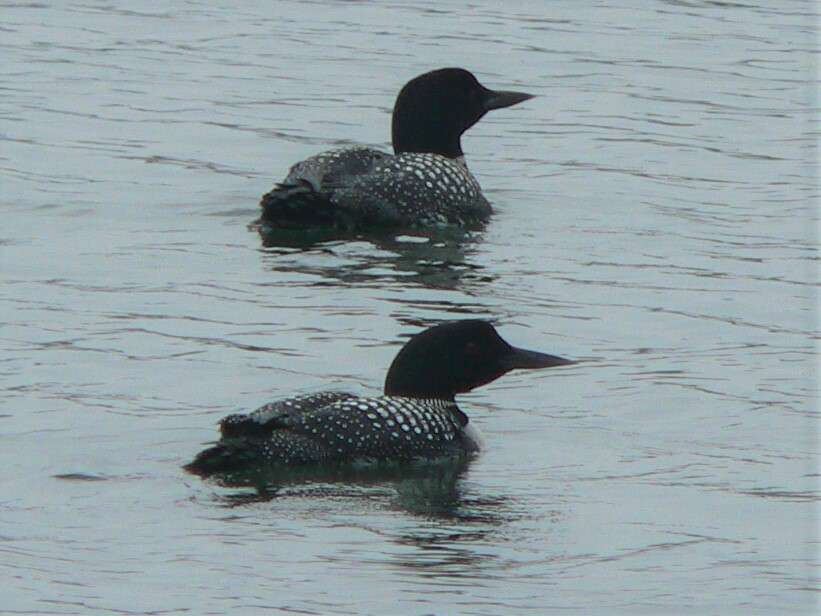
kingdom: Animalia
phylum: Chordata
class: Aves
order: Gaviiformes
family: Gaviidae
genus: Gavia
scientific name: Gavia immer
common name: Common loon
